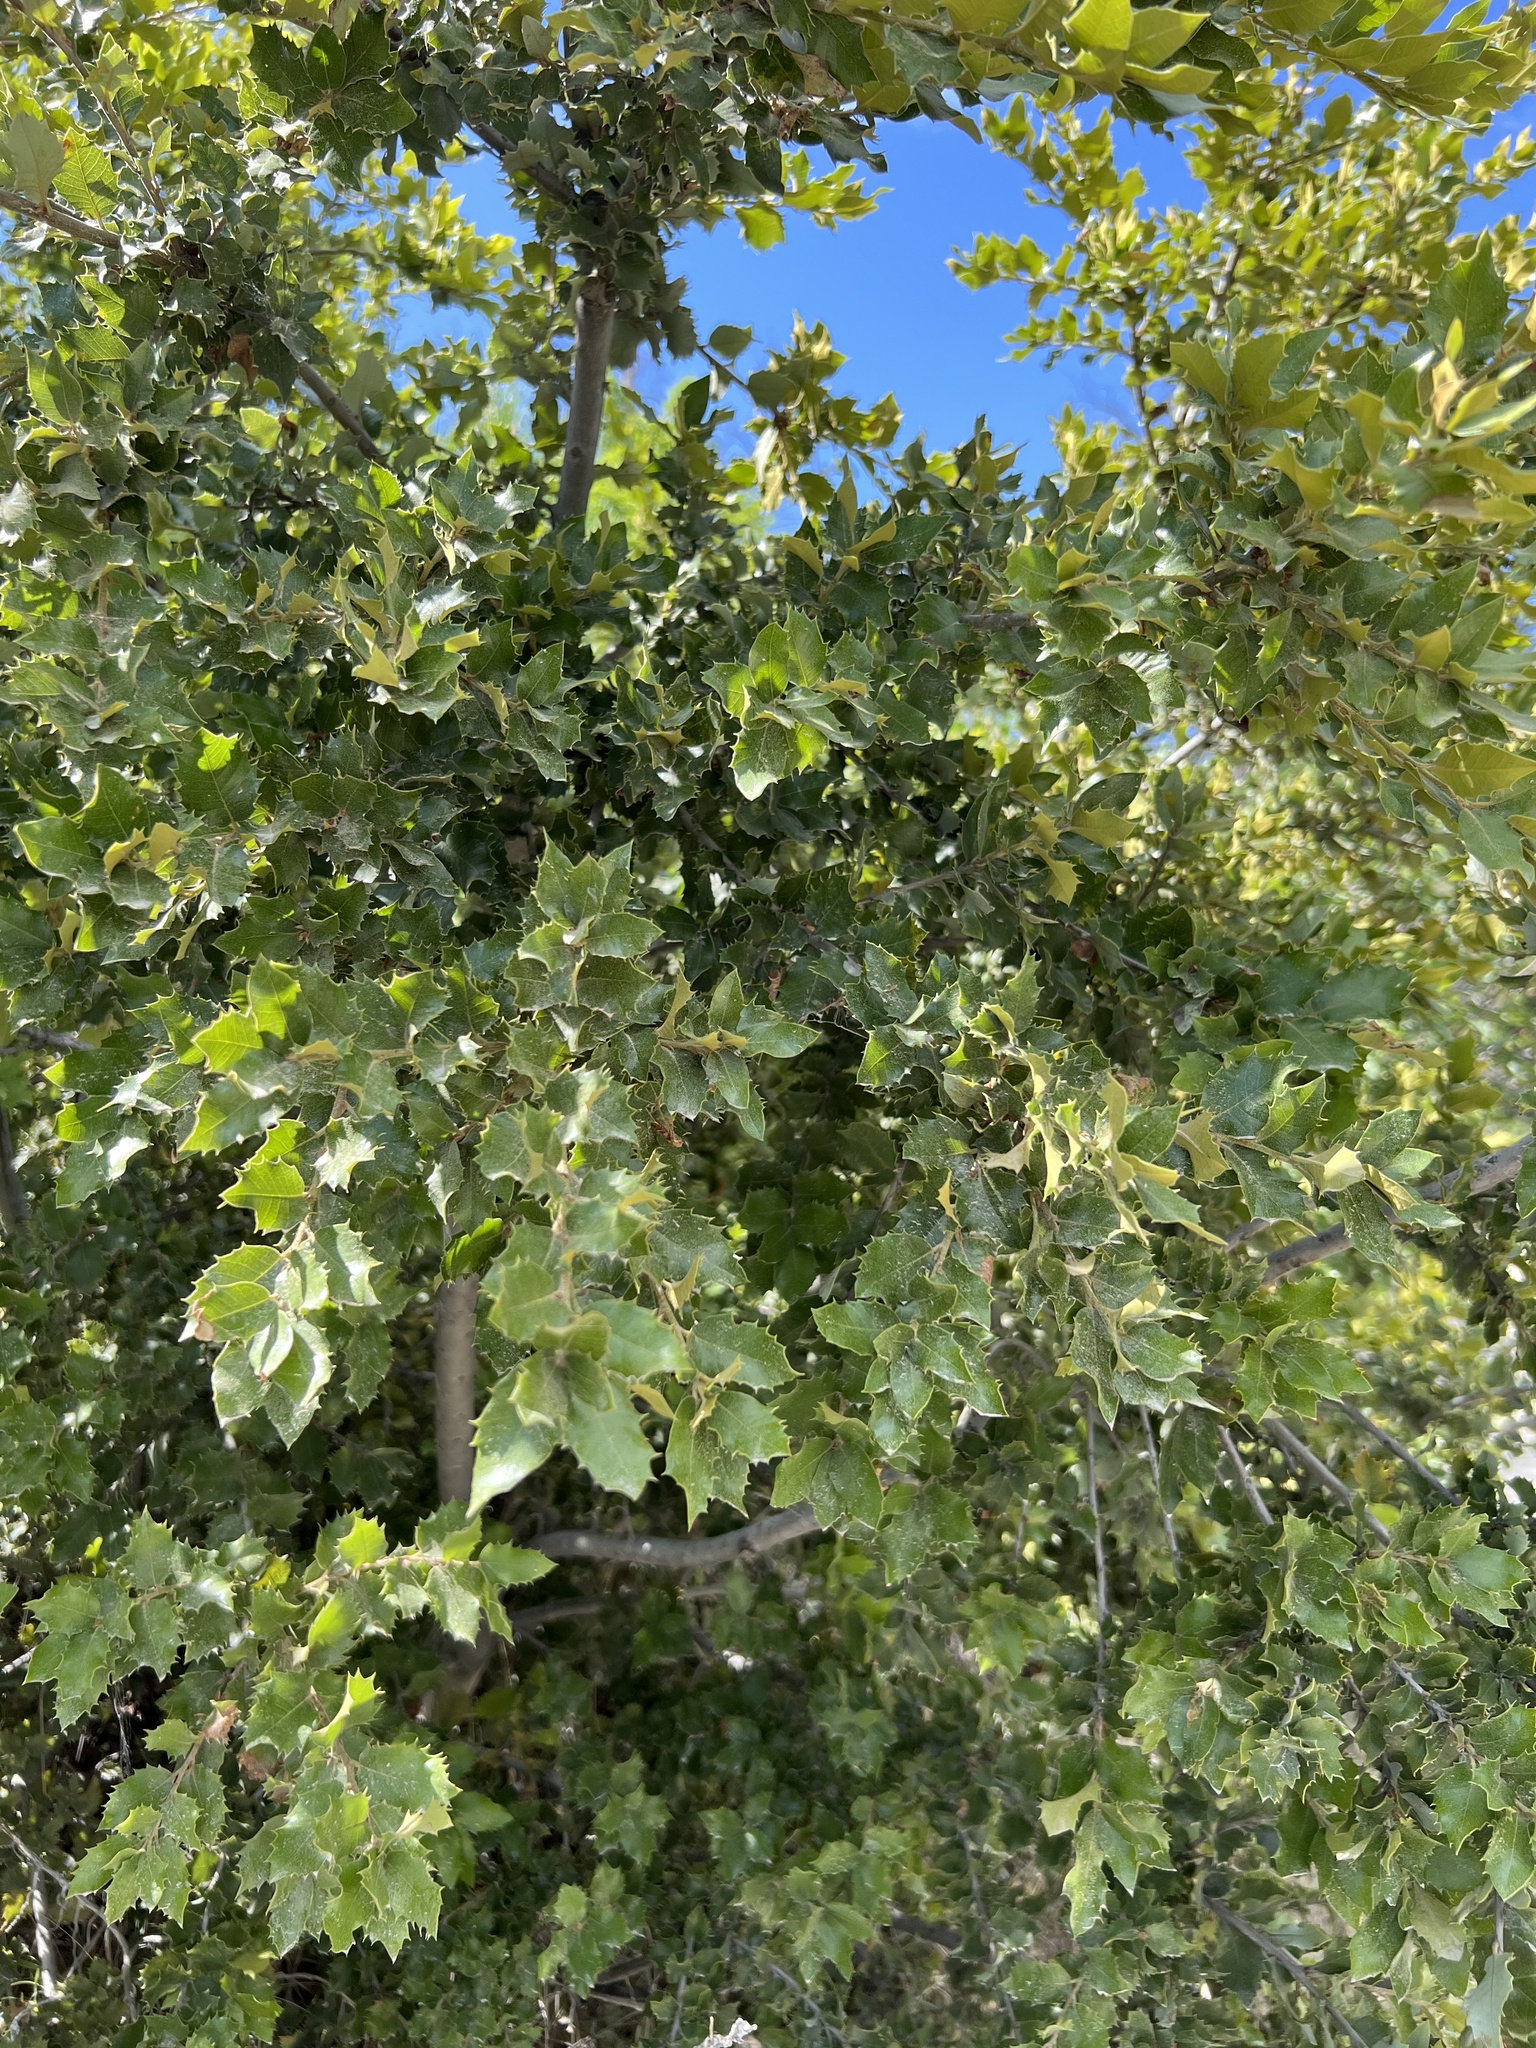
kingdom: Plantae
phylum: Tracheophyta
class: Magnoliopsida
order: Fagales
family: Fagaceae
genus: Quercus
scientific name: Quercus chrysolepis
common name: Canyon live oak
